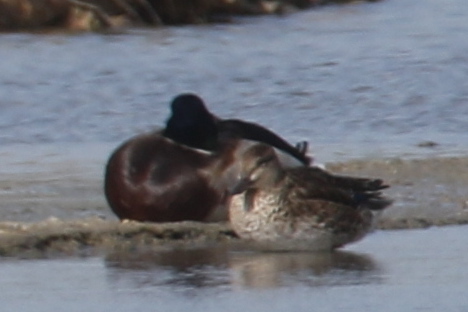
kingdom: Animalia
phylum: Chordata
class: Aves
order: Anseriformes
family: Anatidae
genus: Anas
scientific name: Anas platyrhynchos
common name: Mallard
